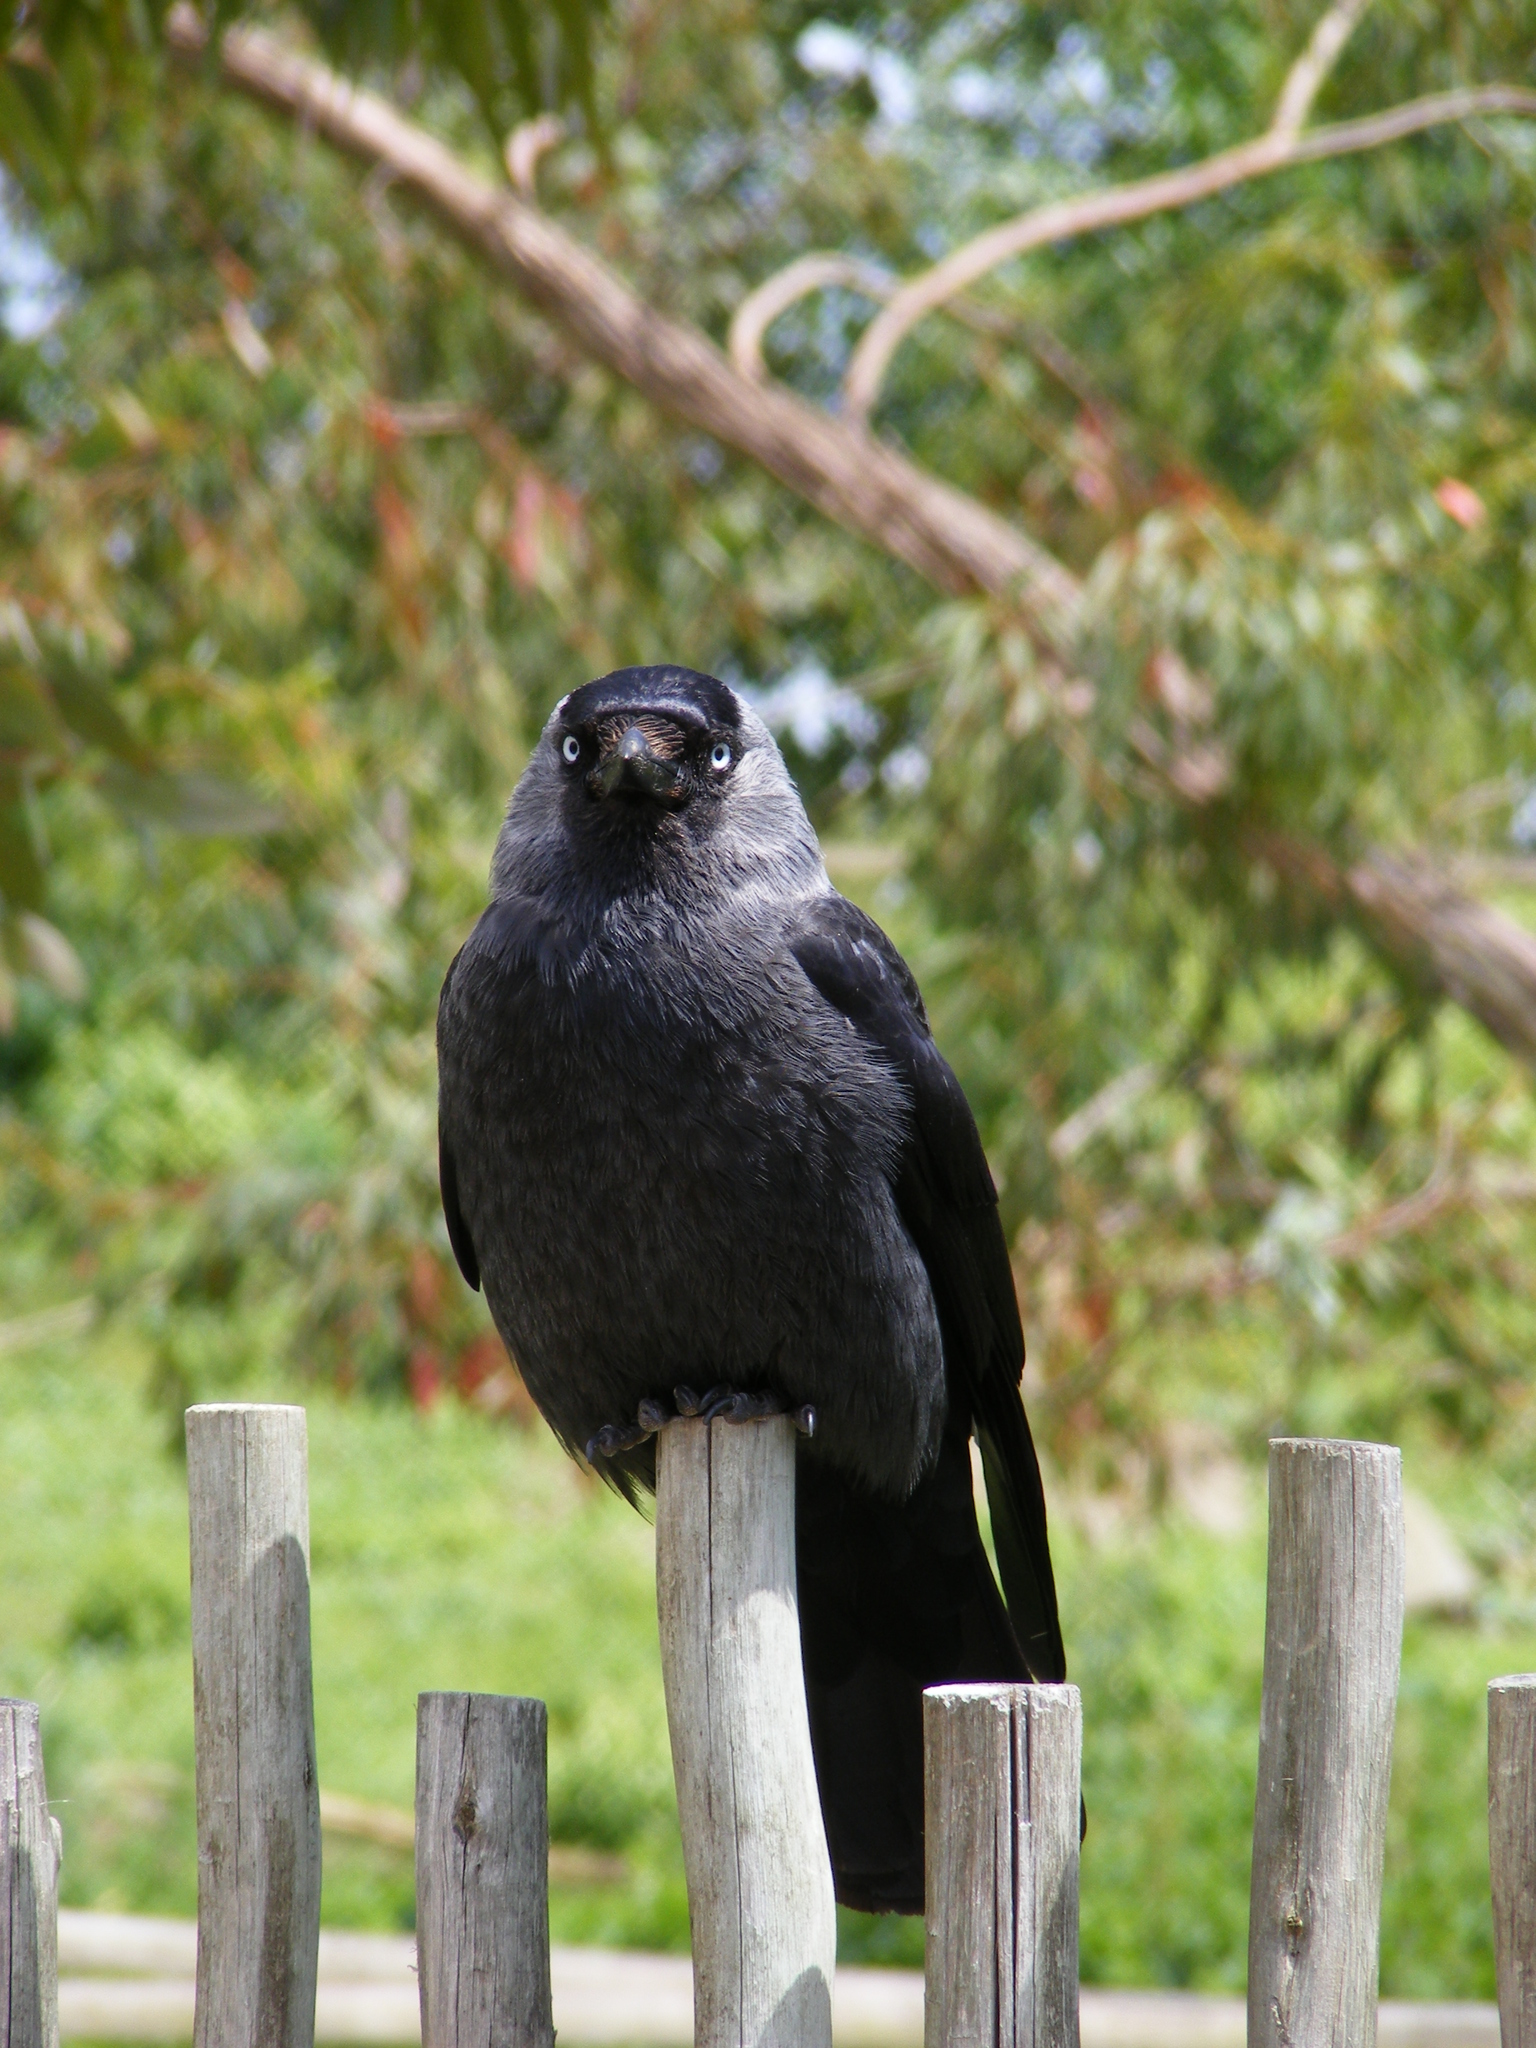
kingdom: Animalia
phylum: Chordata
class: Aves
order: Passeriformes
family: Corvidae
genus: Coloeus
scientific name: Coloeus monedula
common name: Western jackdaw
